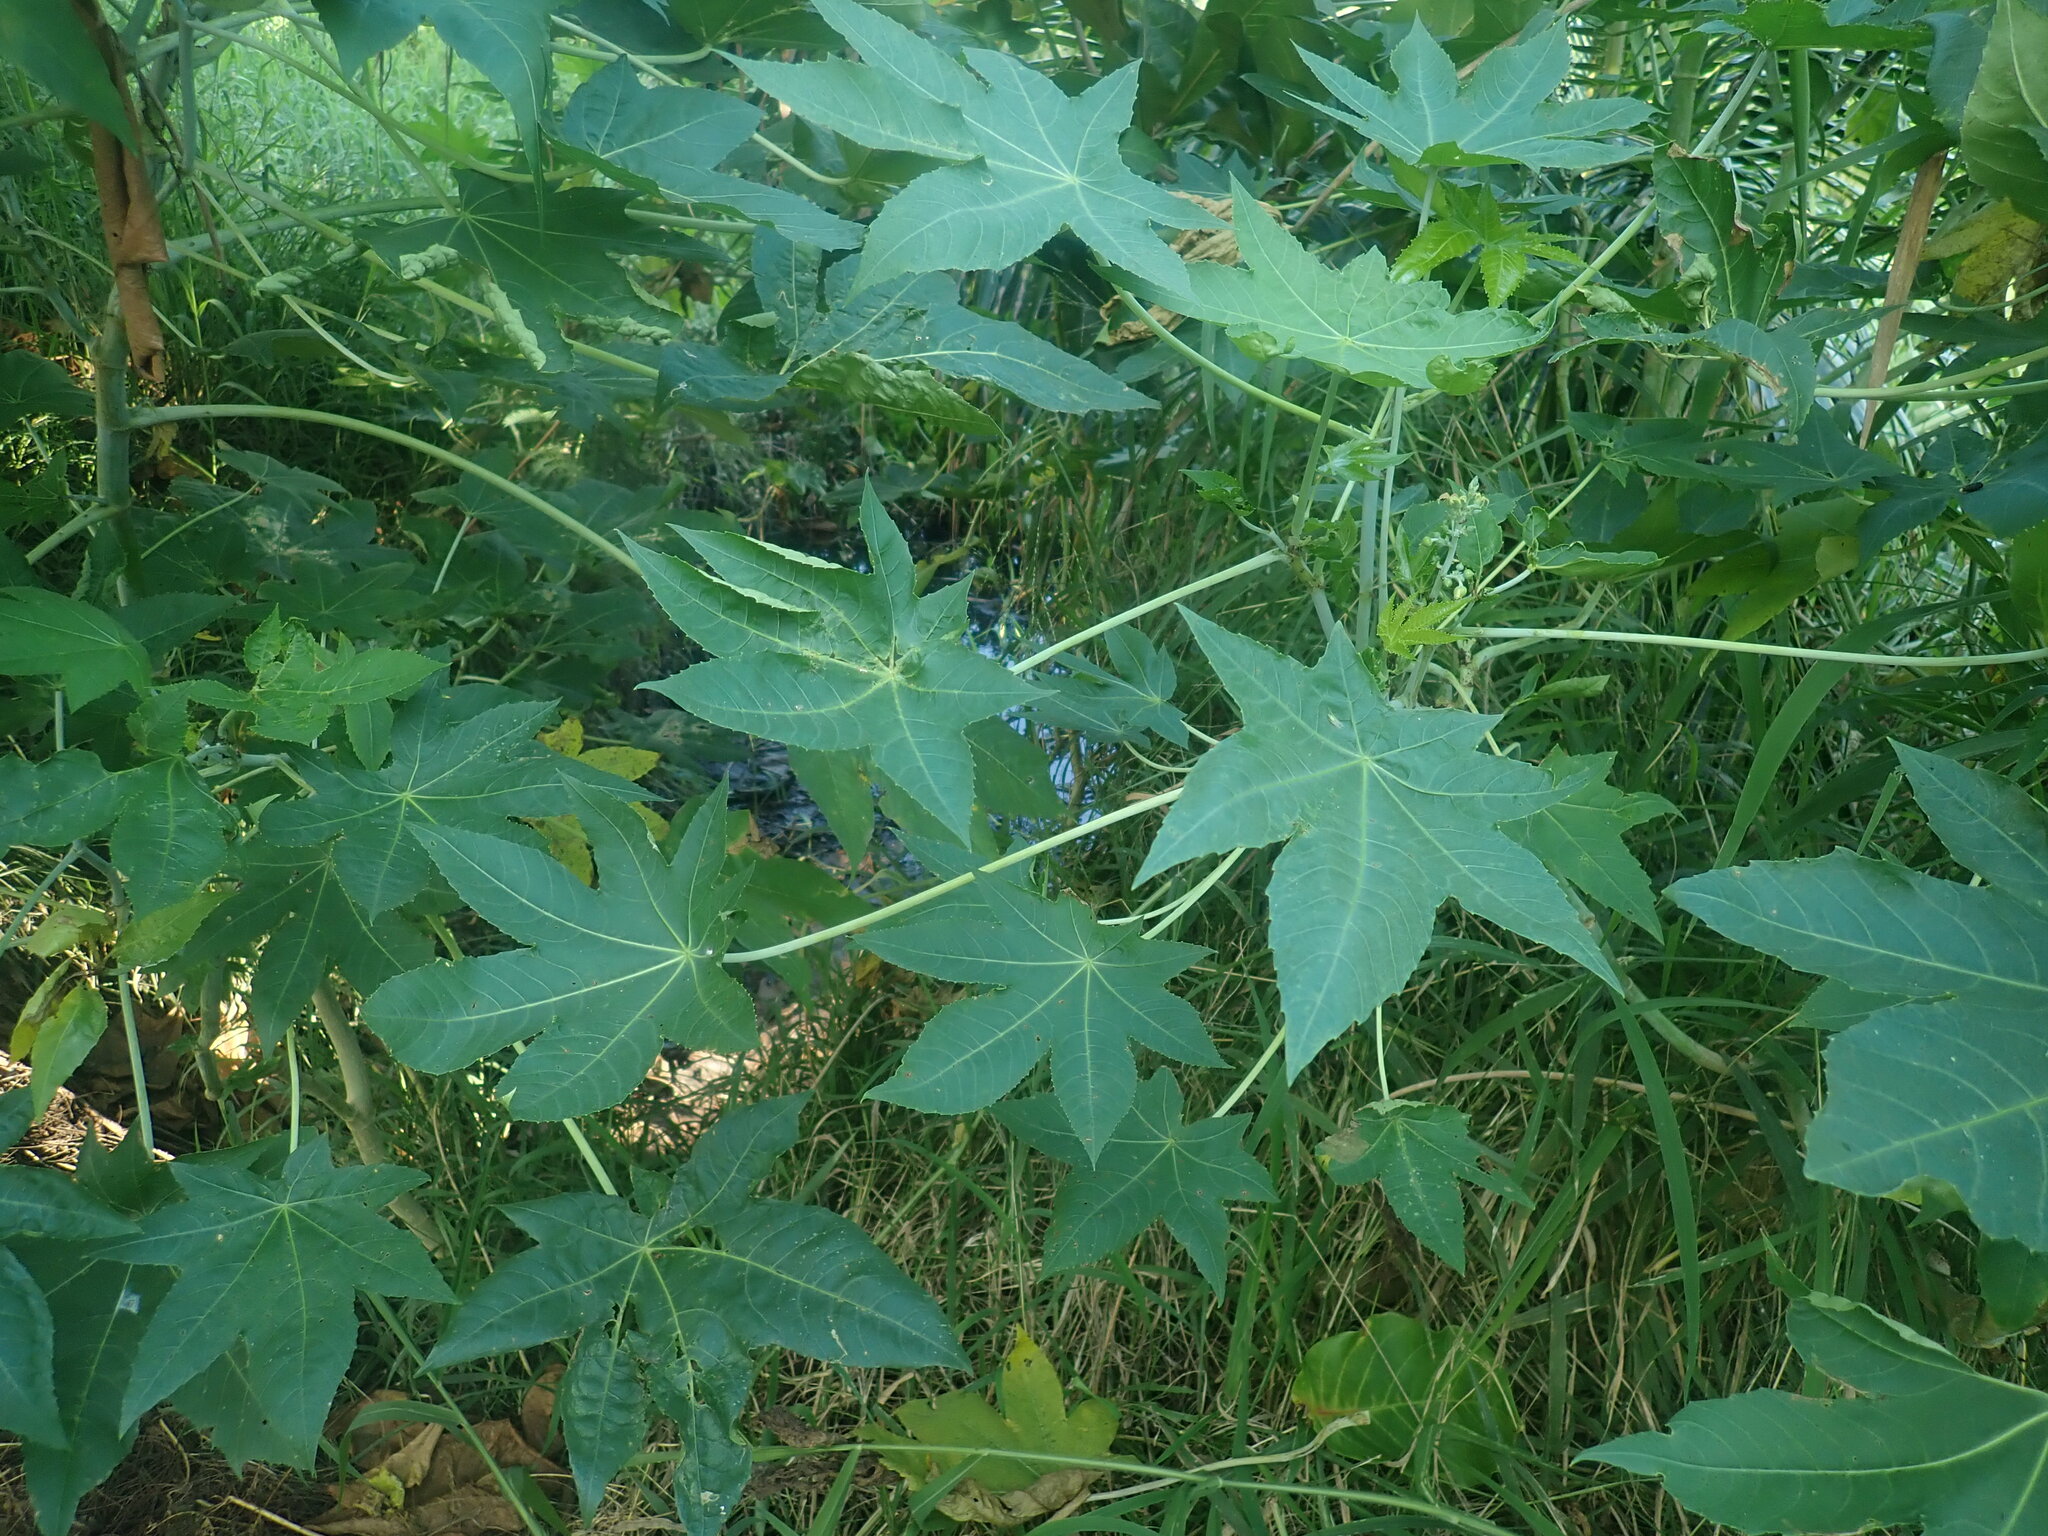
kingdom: Plantae
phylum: Tracheophyta
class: Magnoliopsida
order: Malpighiales
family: Euphorbiaceae
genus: Ricinus
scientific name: Ricinus communis
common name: Castor-oil-plant
